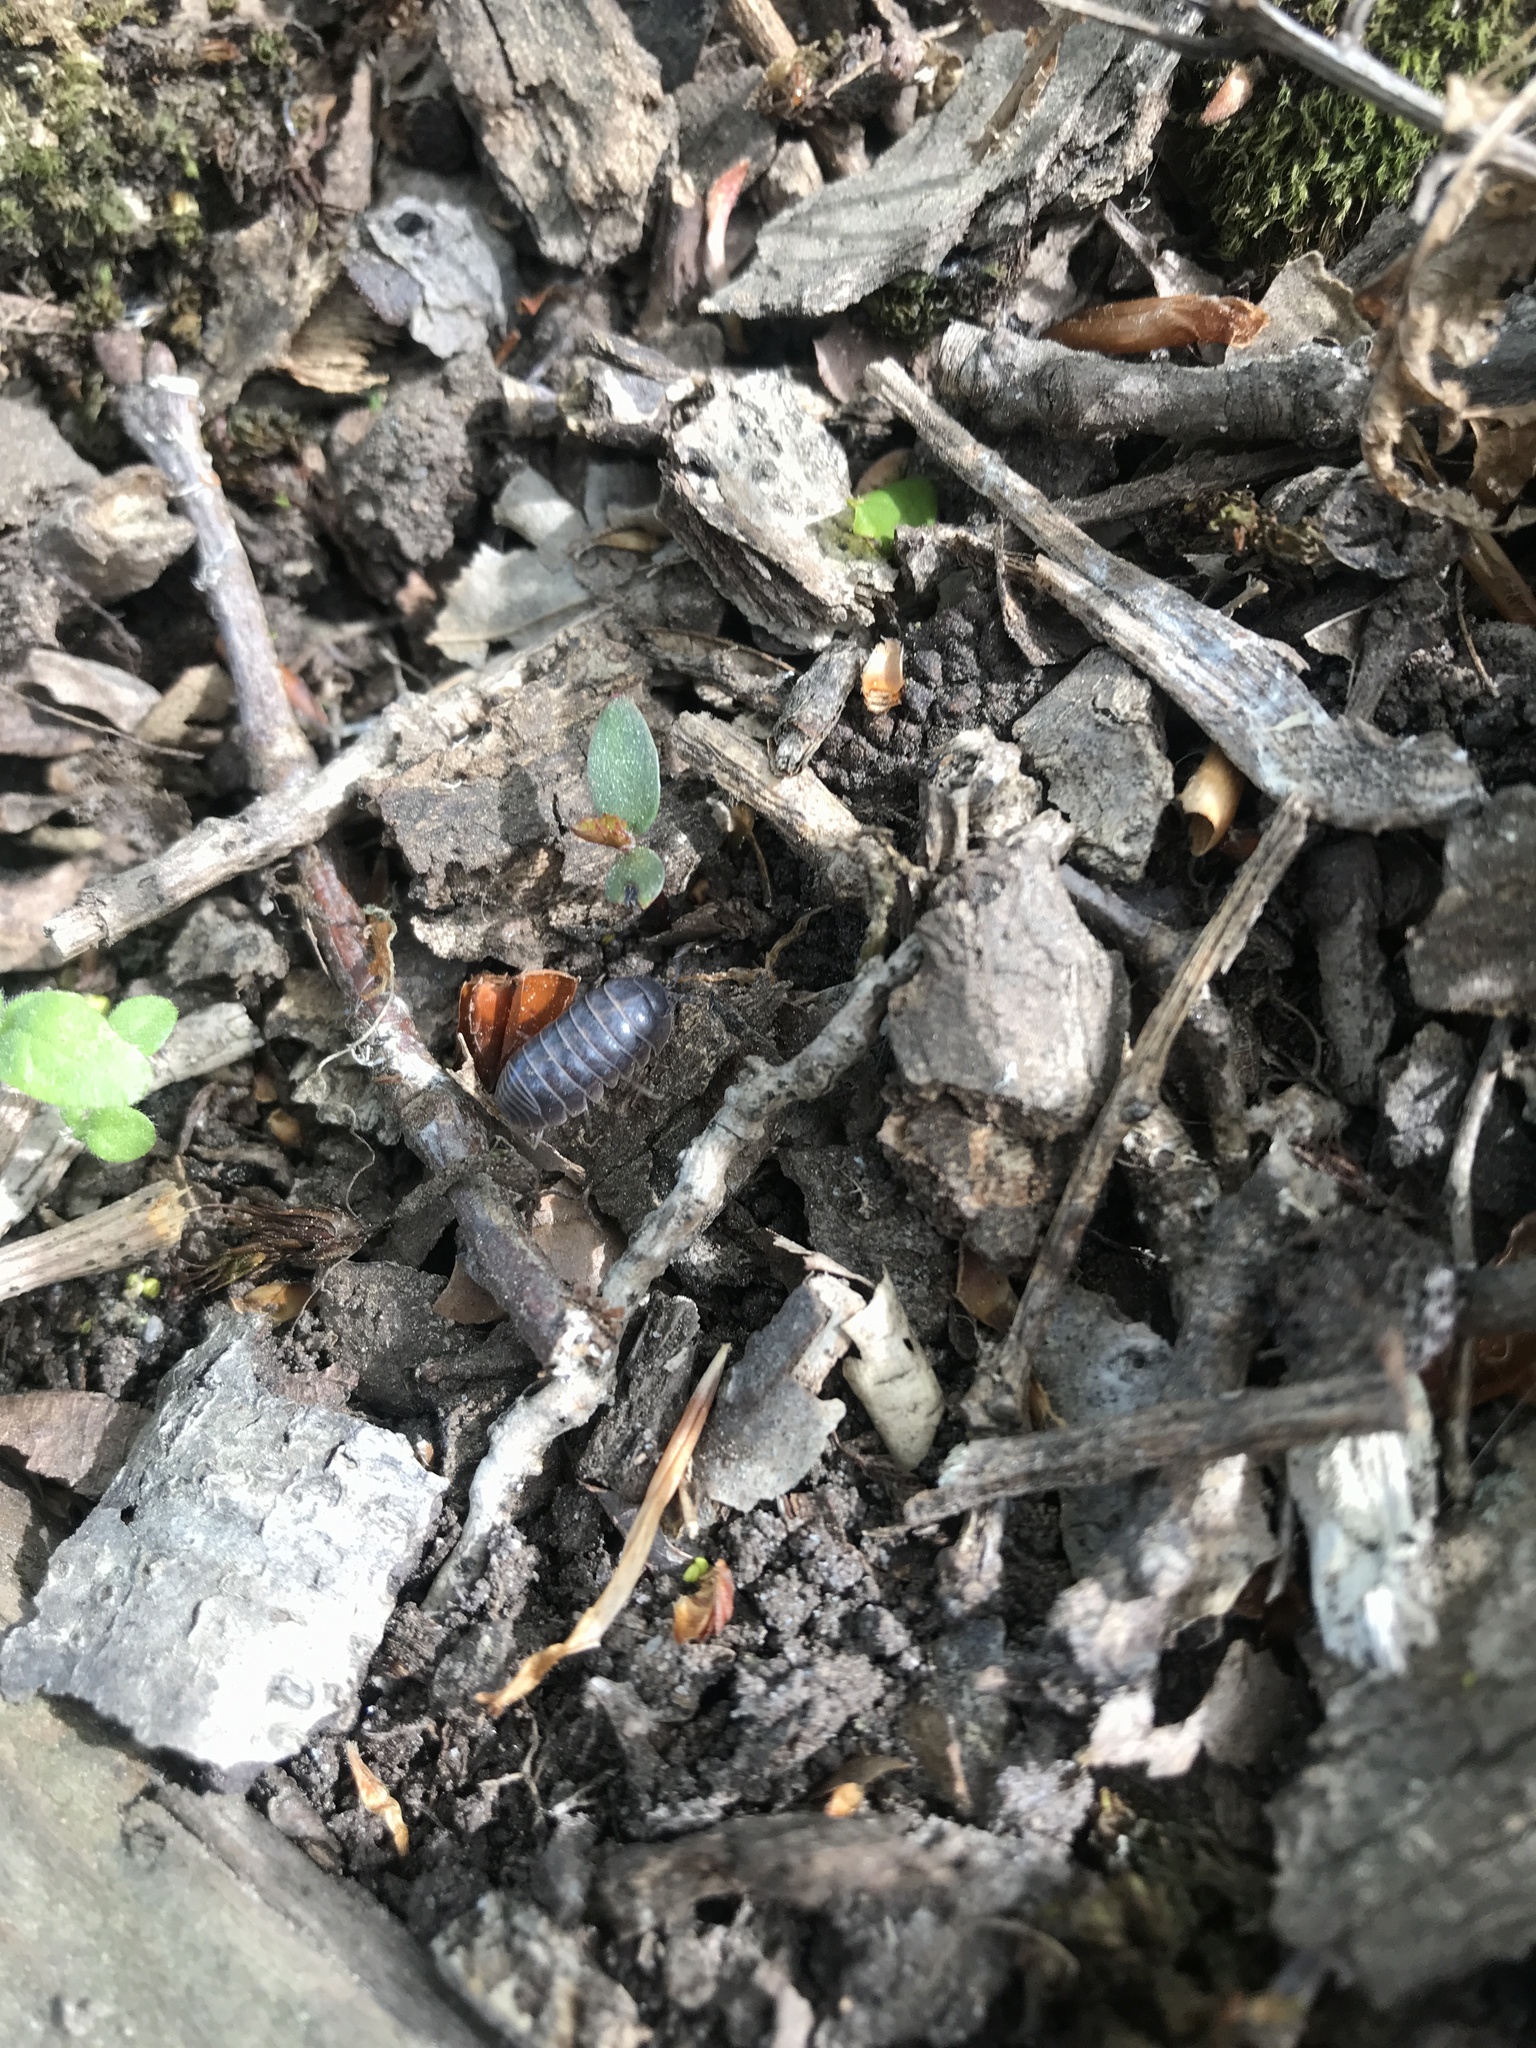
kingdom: Animalia
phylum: Arthropoda
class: Malacostraca
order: Isopoda
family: Armadillidiidae
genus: Armadillidium
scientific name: Armadillidium vulgare
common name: Common pill woodlouse
